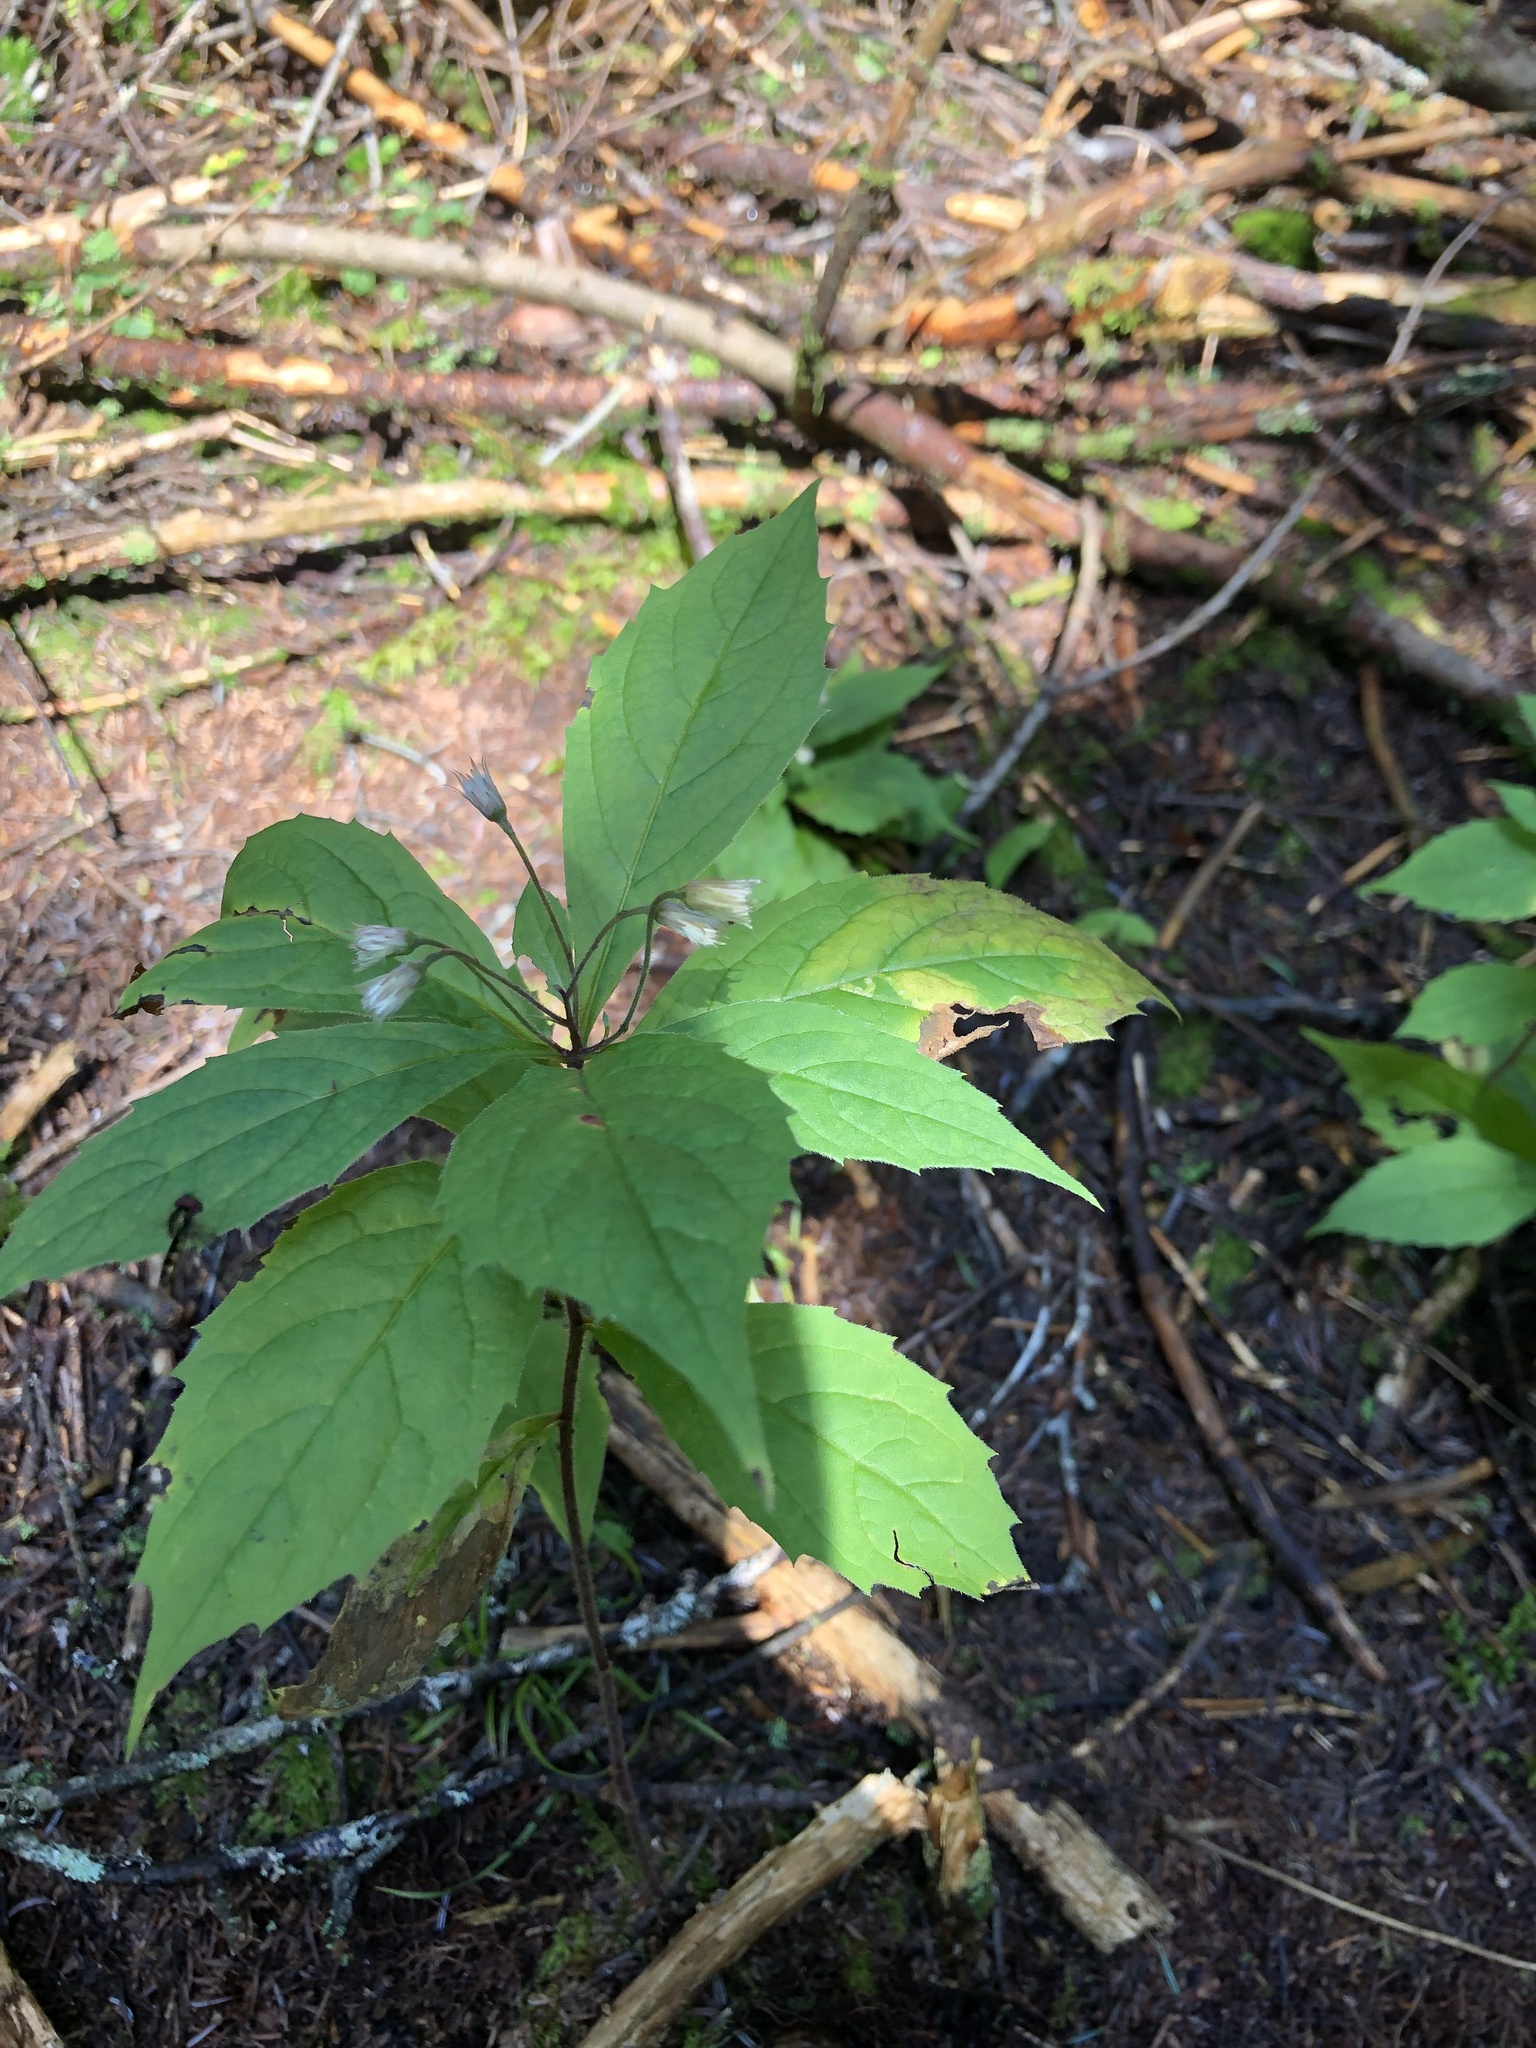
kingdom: Plantae
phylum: Tracheophyta
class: Magnoliopsida
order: Asterales
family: Asteraceae
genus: Oclemena
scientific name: Oclemena acuminata
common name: Mountain aster
